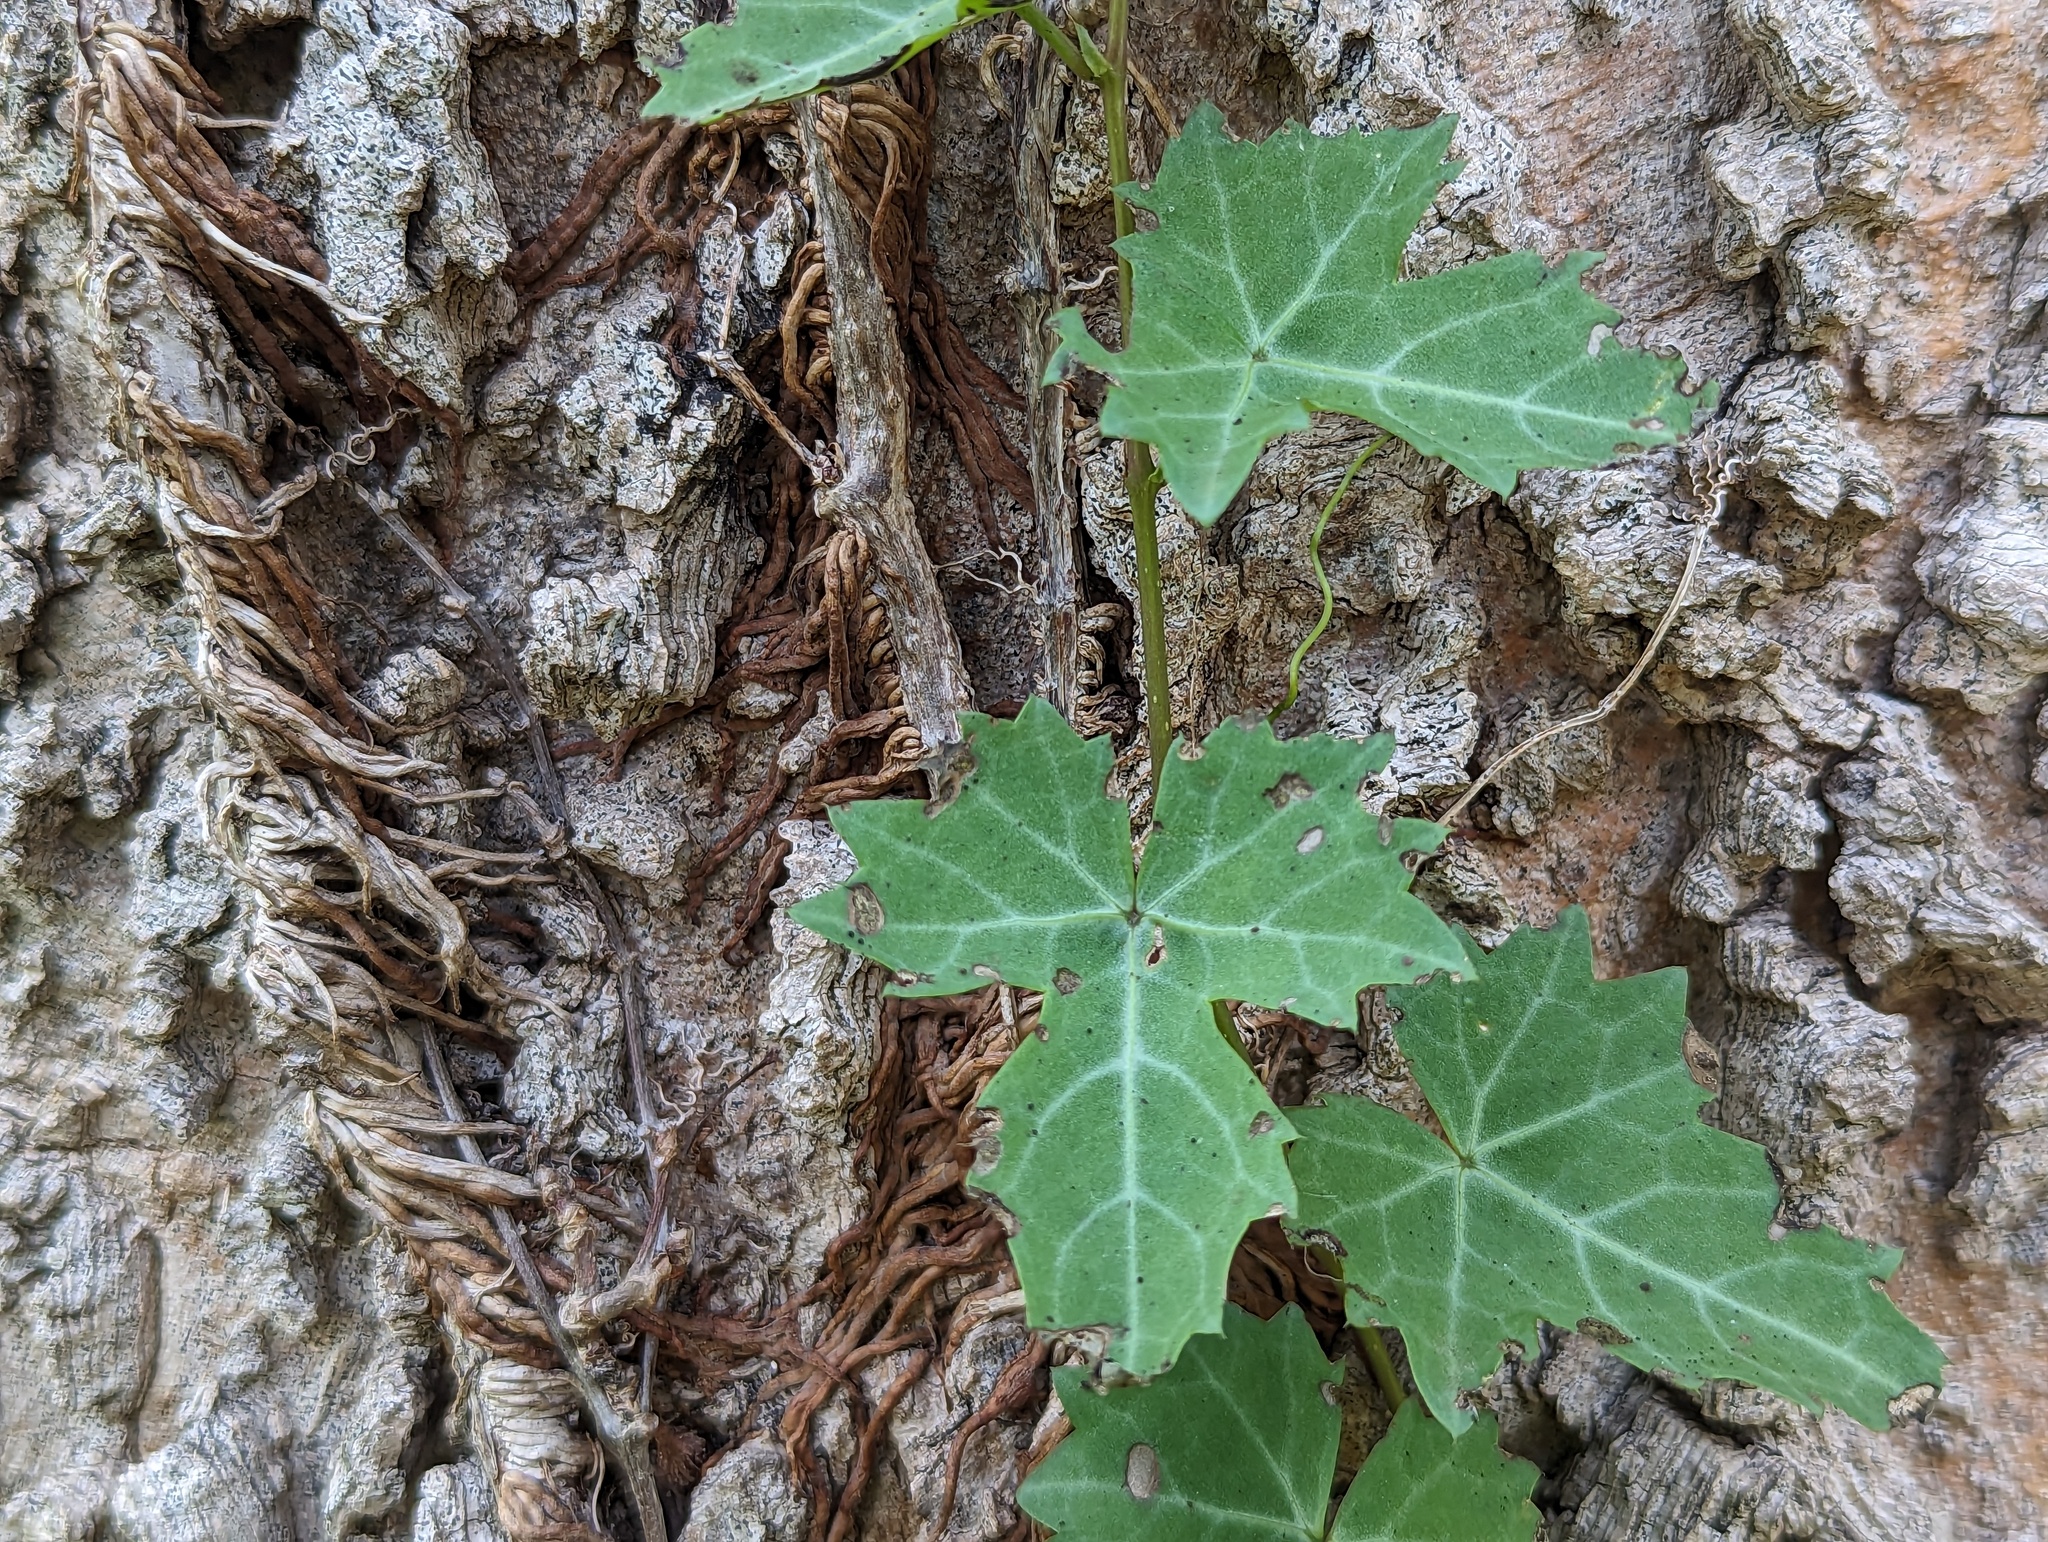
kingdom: Plantae
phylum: Tracheophyta
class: Magnoliopsida
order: Vitales
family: Vitaceae
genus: Cissus
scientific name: Cissus trifoliata
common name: Vine-sorrel
